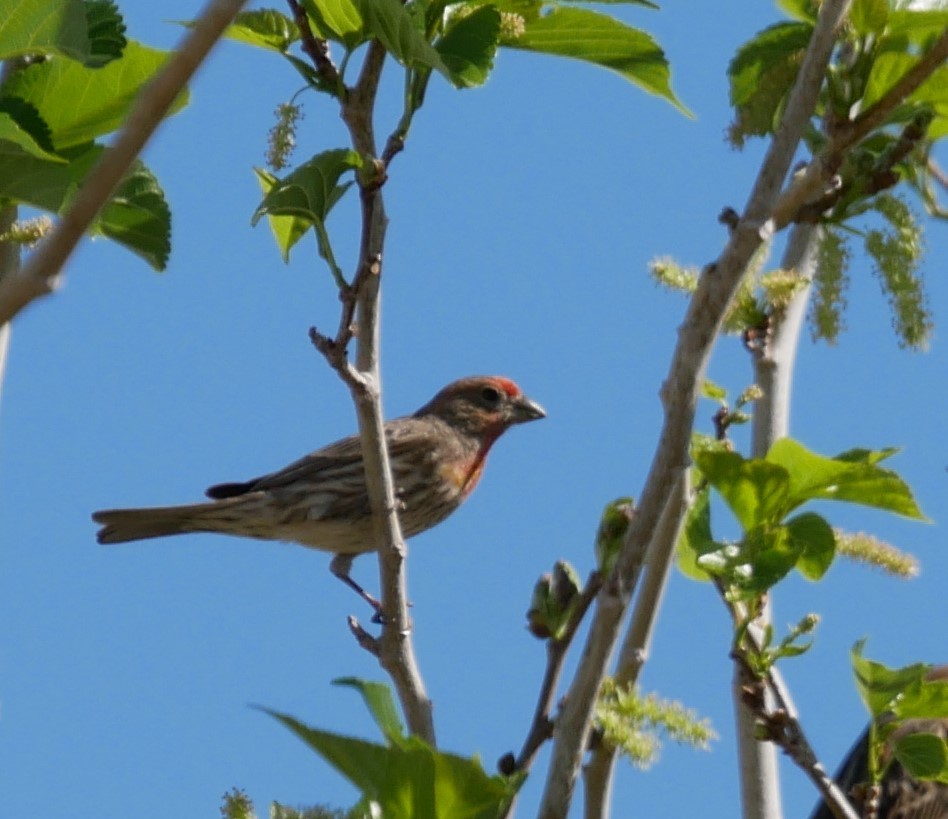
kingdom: Animalia
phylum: Chordata
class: Aves
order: Passeriformes
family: Fringillidae
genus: Haemorhous
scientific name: Haemorhous mexicanus
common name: House finch
